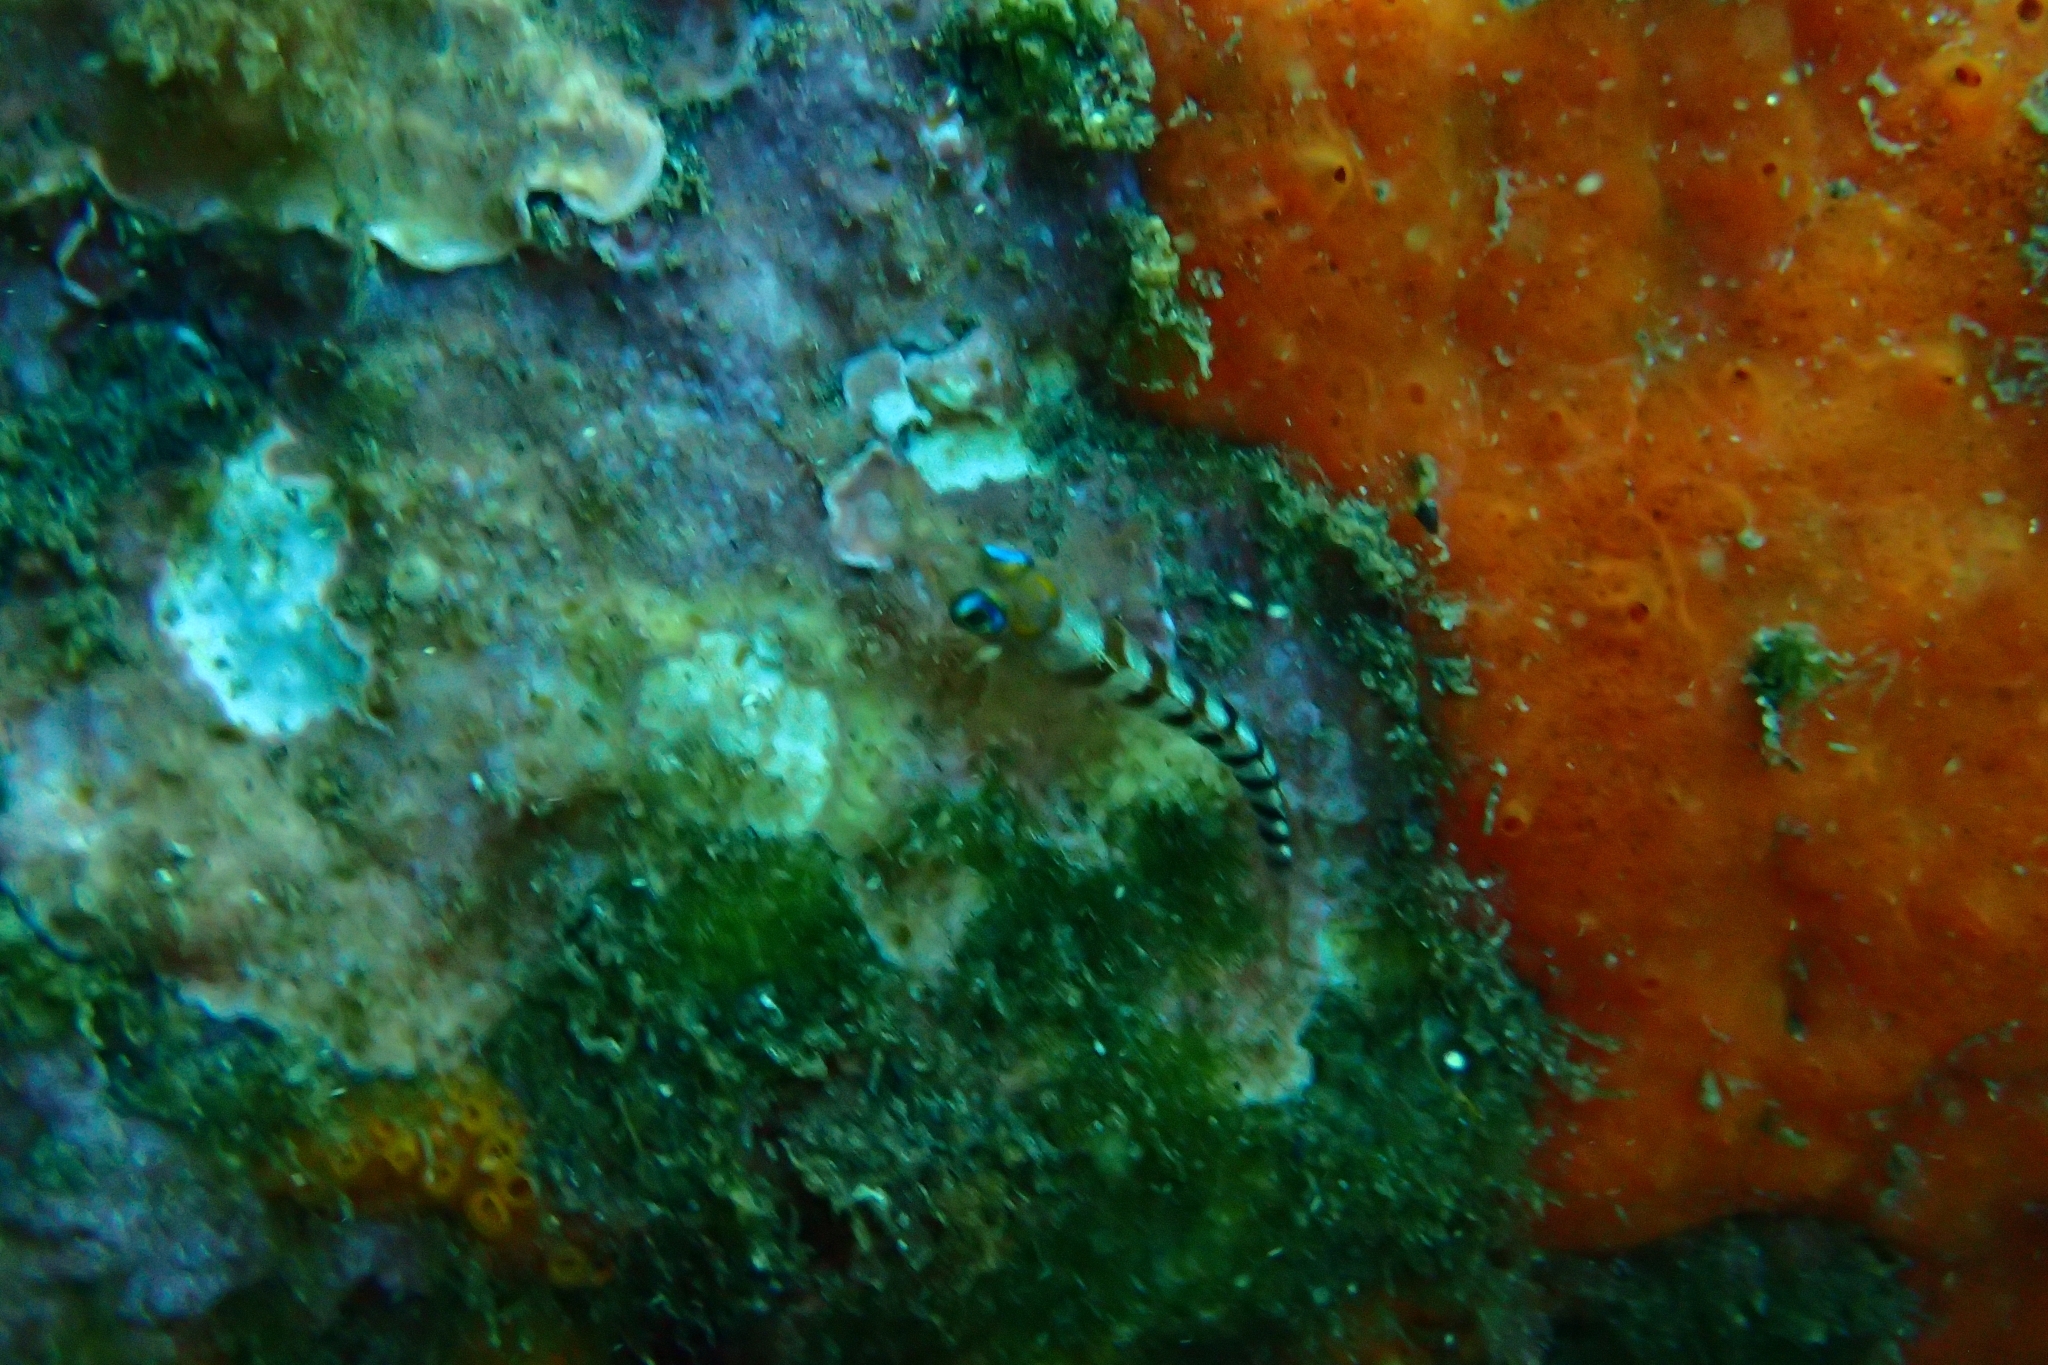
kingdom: Animalia
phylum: Chordata
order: Perciformes
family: Tripterygiidae
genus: Notoclinops
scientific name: Notoclinops segmentatus
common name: Blue-eyed triplefin
